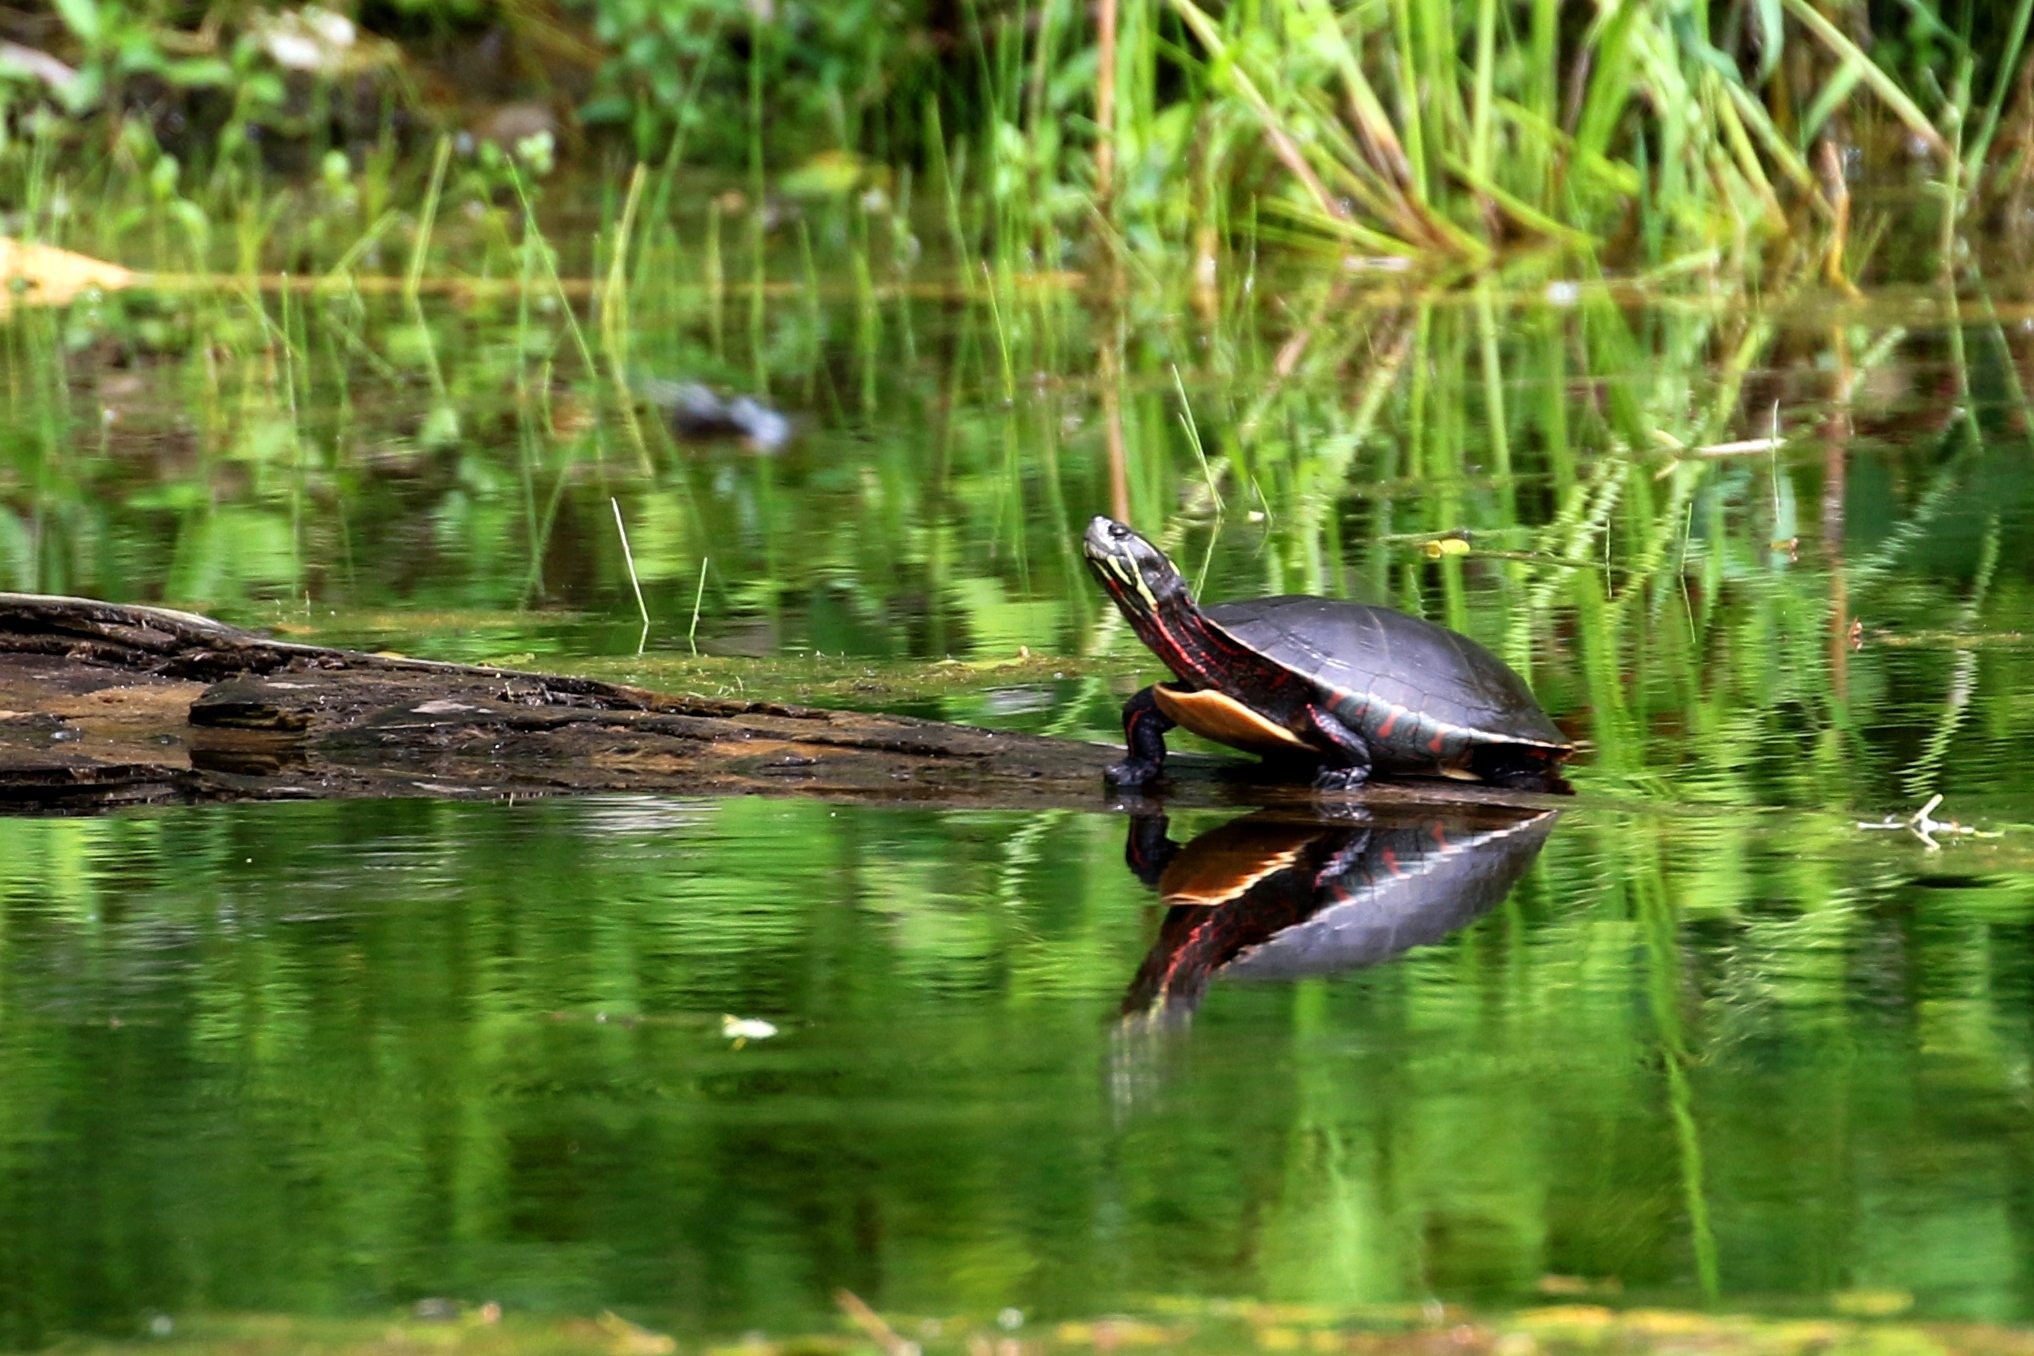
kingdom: Animalia
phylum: Chordata
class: Testudines
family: Emydidae
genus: Chrysemys
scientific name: Chrysemys picta
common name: Painted turtle
